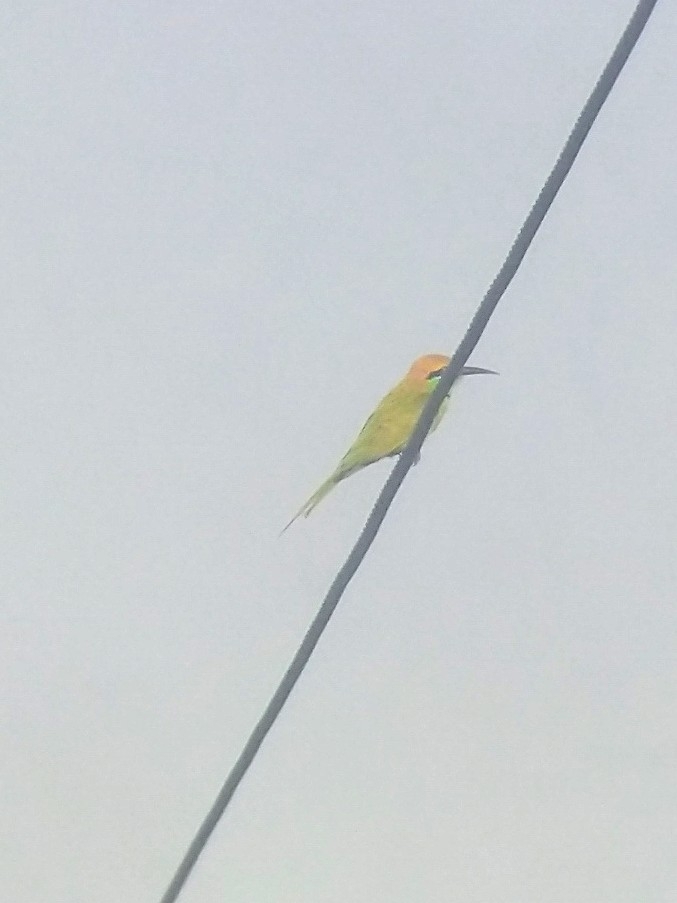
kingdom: Animalia
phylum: Chordata
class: Aves
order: Coraciiformes
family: Meropidae
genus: Merops
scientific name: Merops orientalis
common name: Green bee-eater
